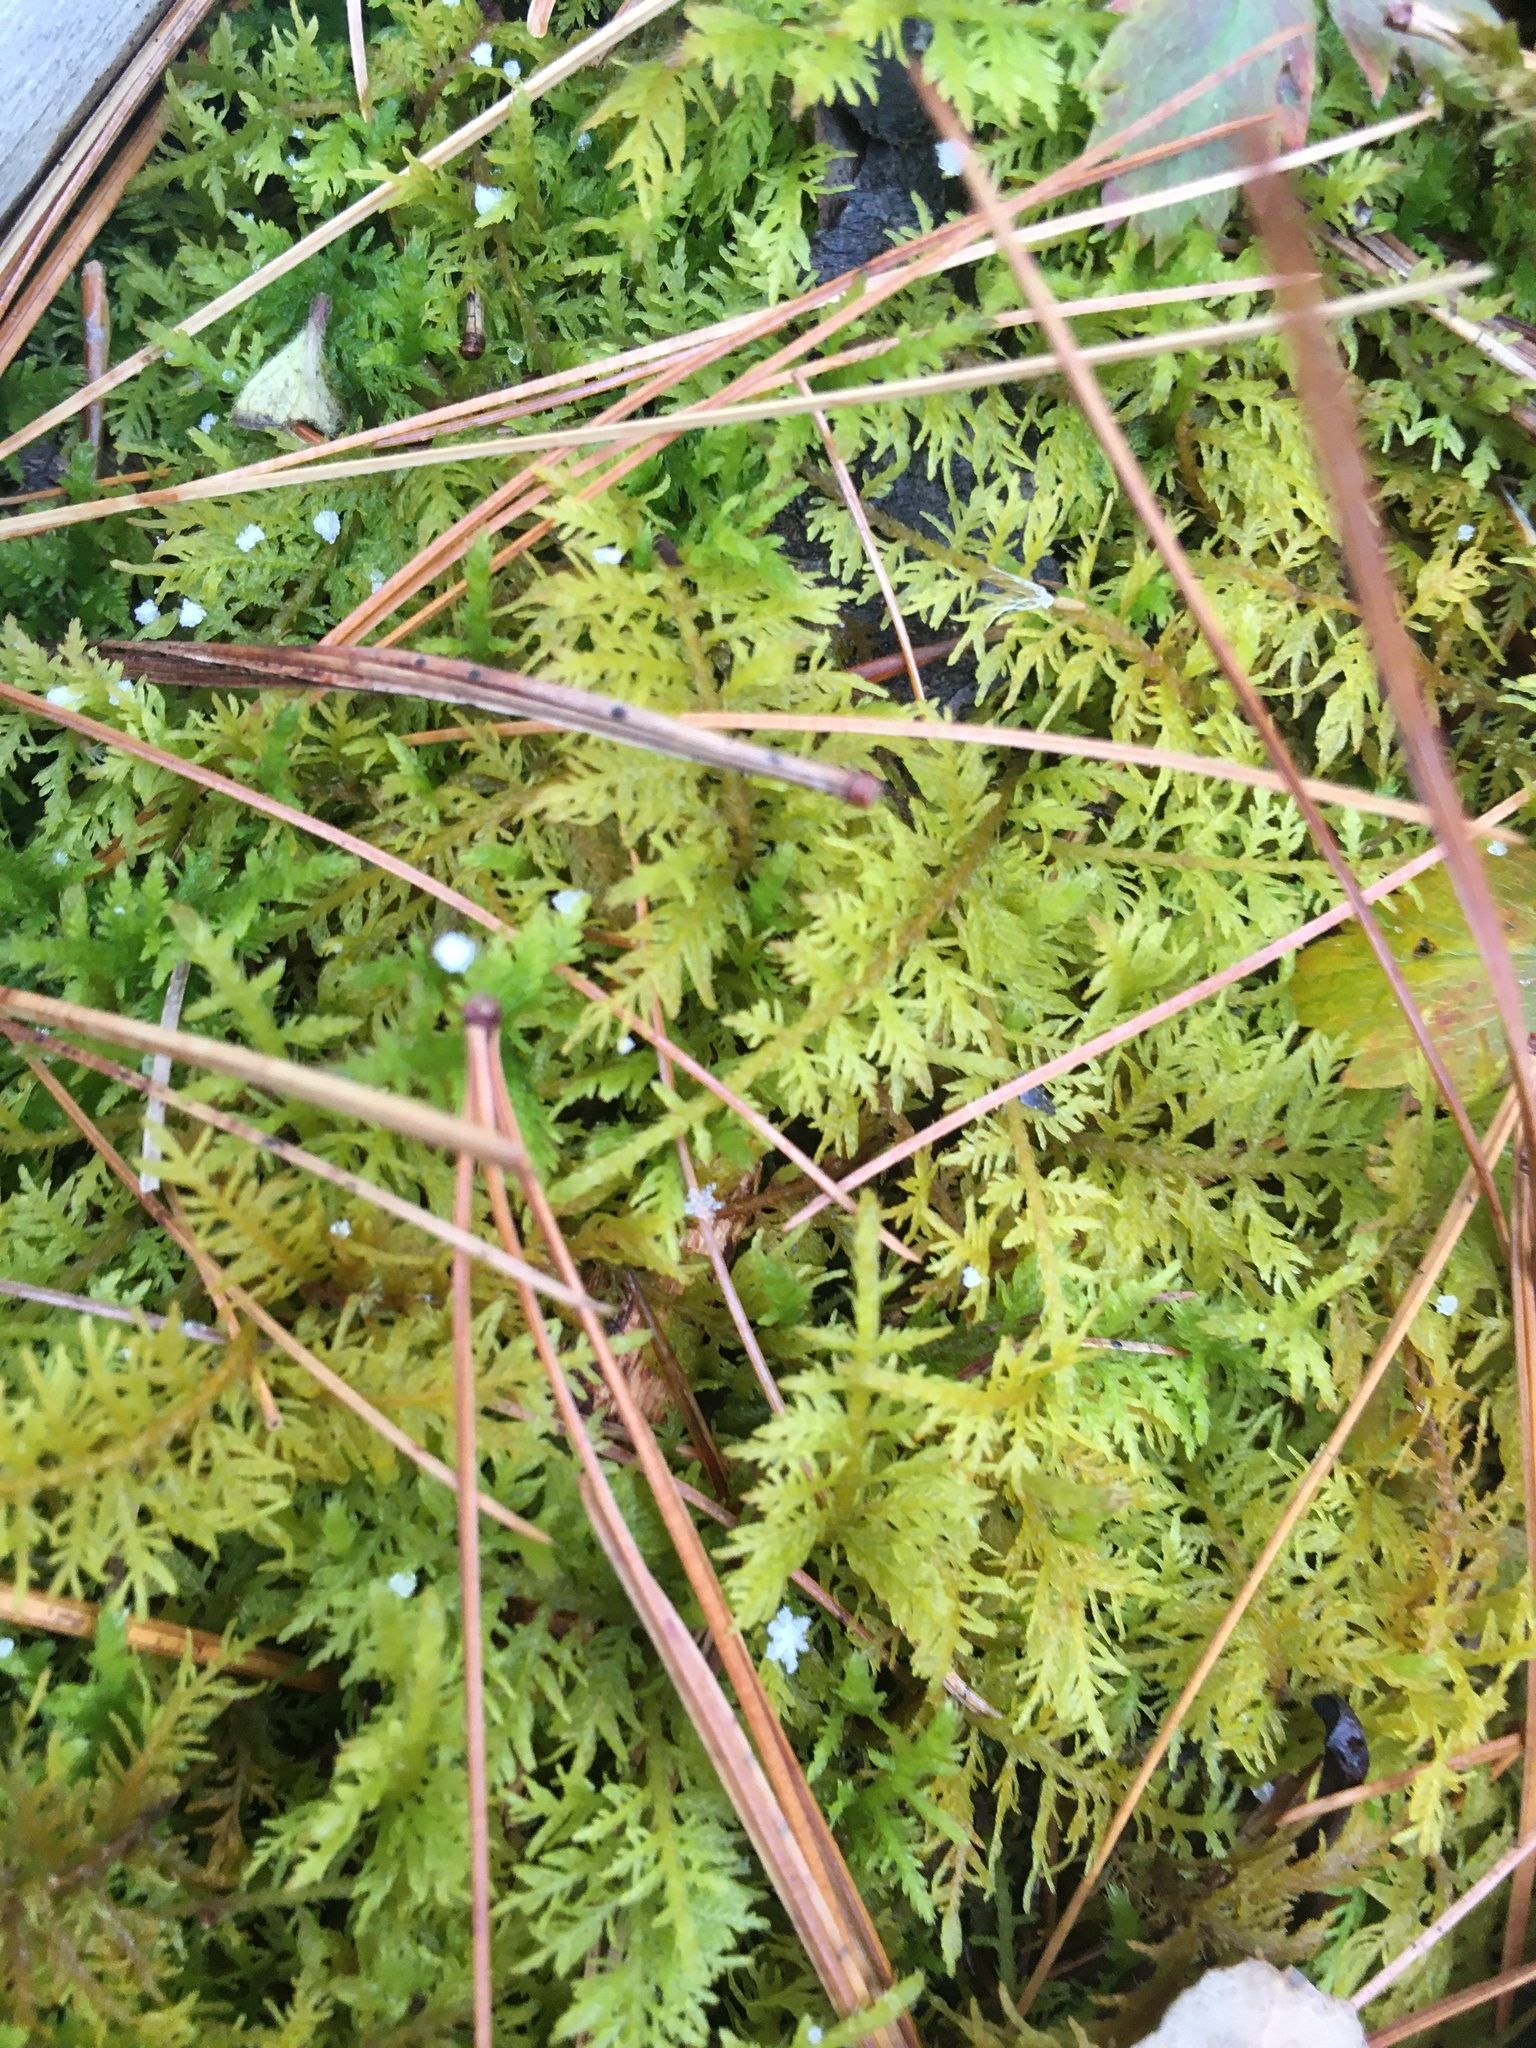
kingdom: Plantae
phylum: Bryophyta
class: Bryopsida
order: Hypnales
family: Thuidiaceae
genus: Thuidium
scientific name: Thuidium delicatulum
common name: Delicate fern moss
